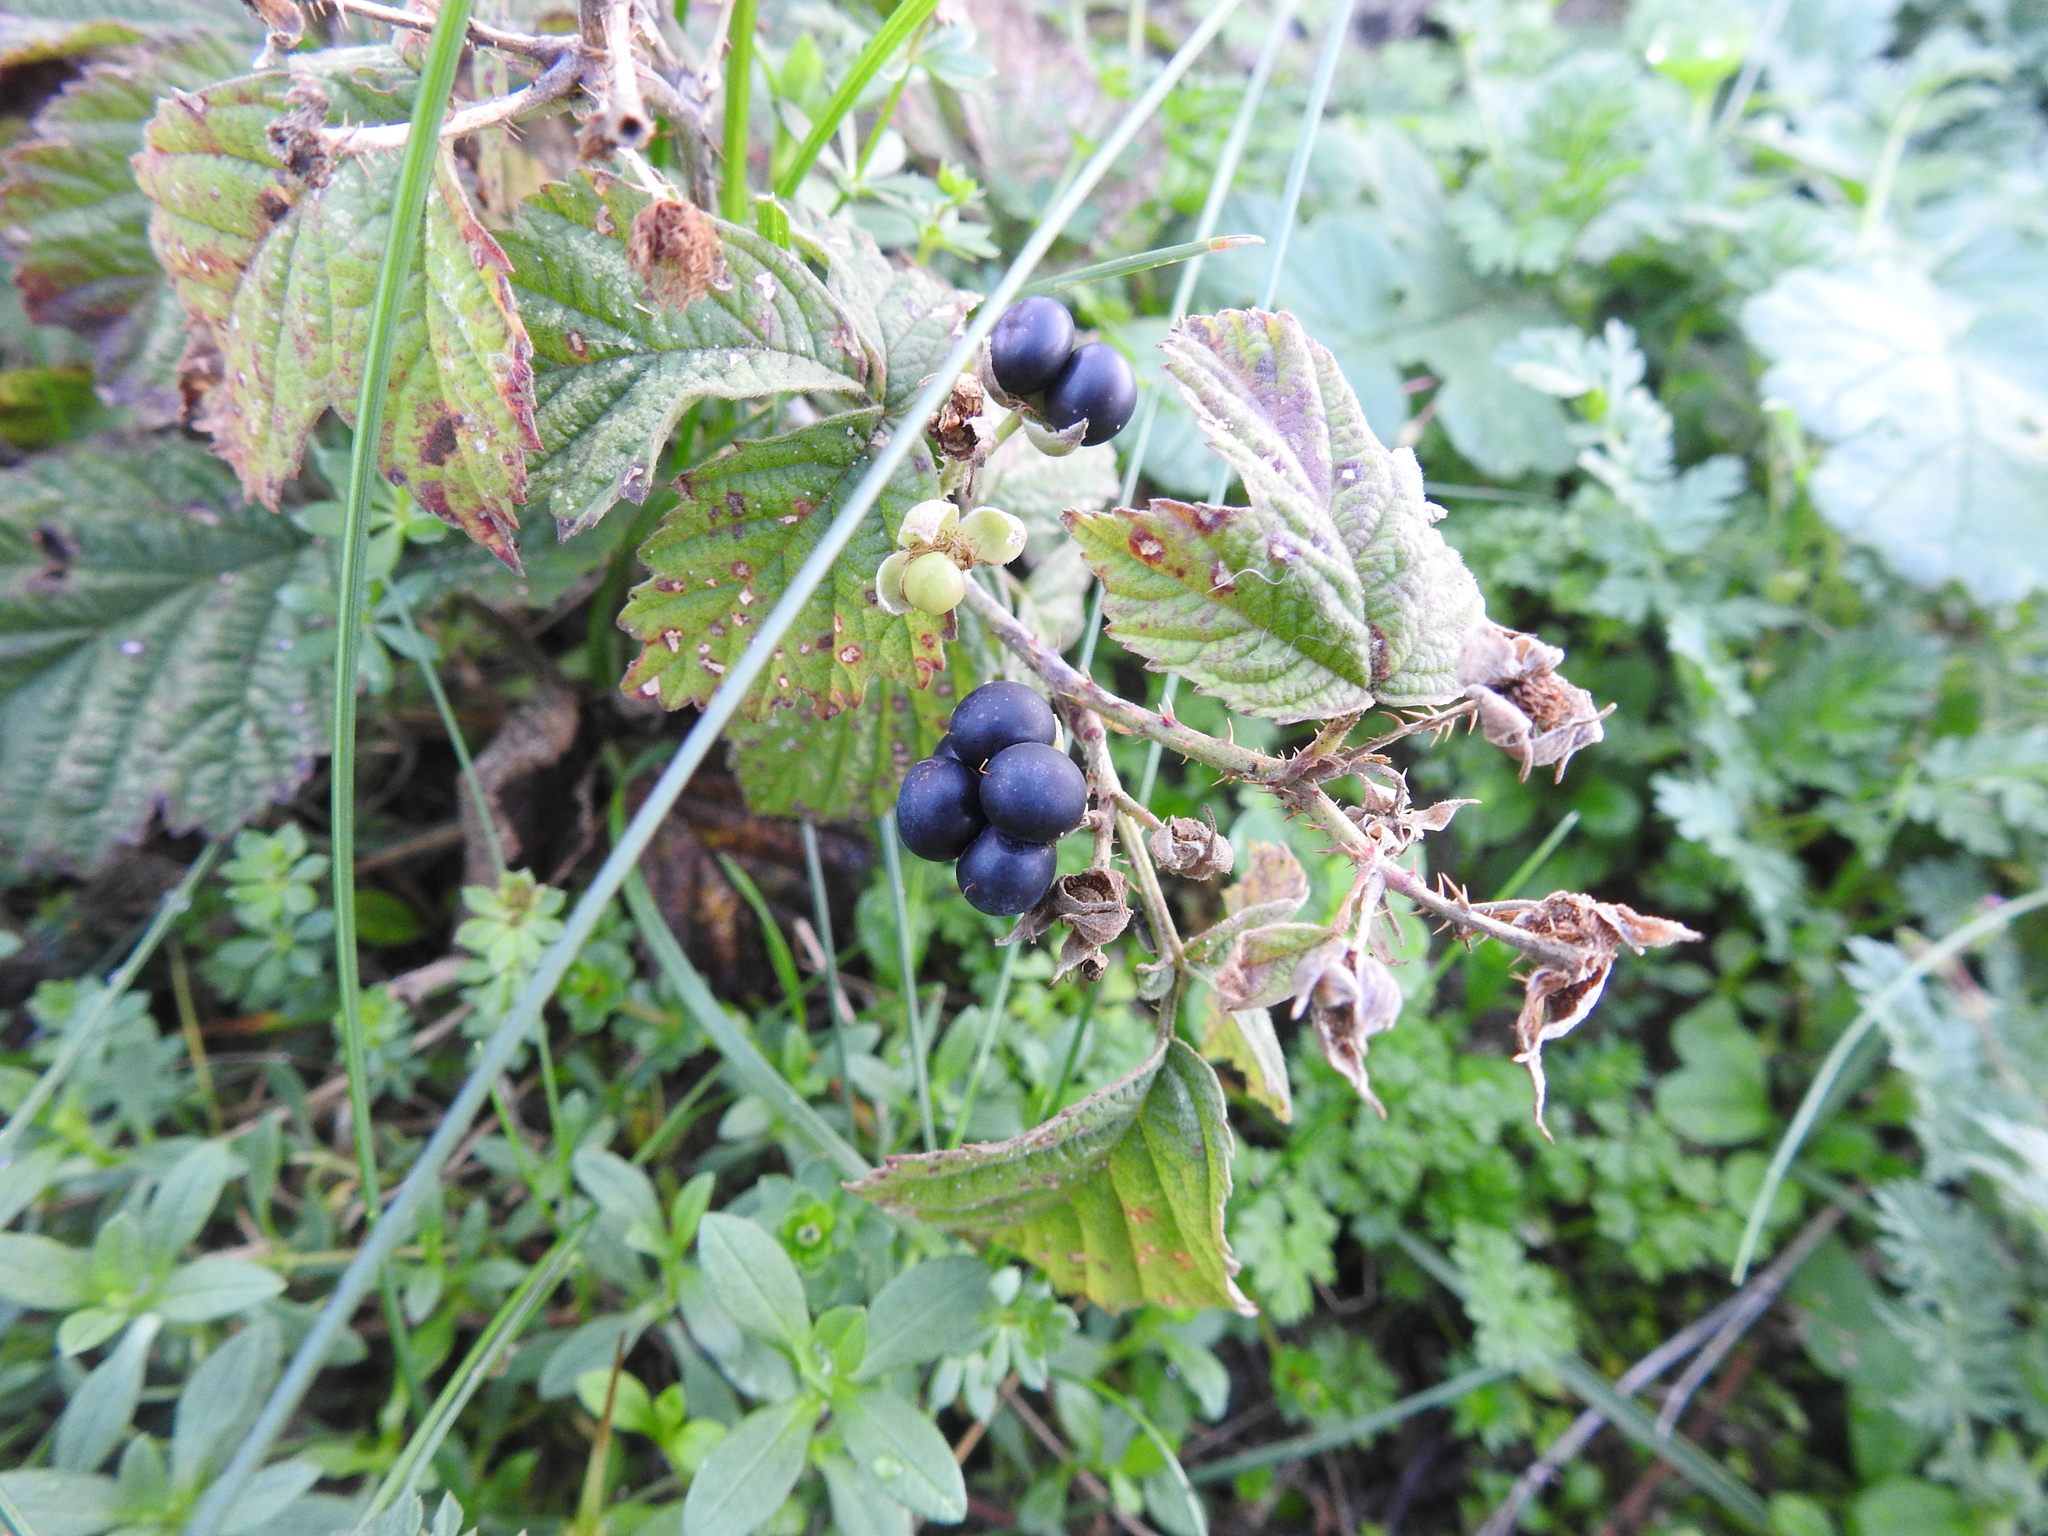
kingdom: Plantae
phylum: Tracheophyta
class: Magnoliopsida
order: Rosales
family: Rosaceae
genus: Rubus
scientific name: Rubus caesius
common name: Dewberry
